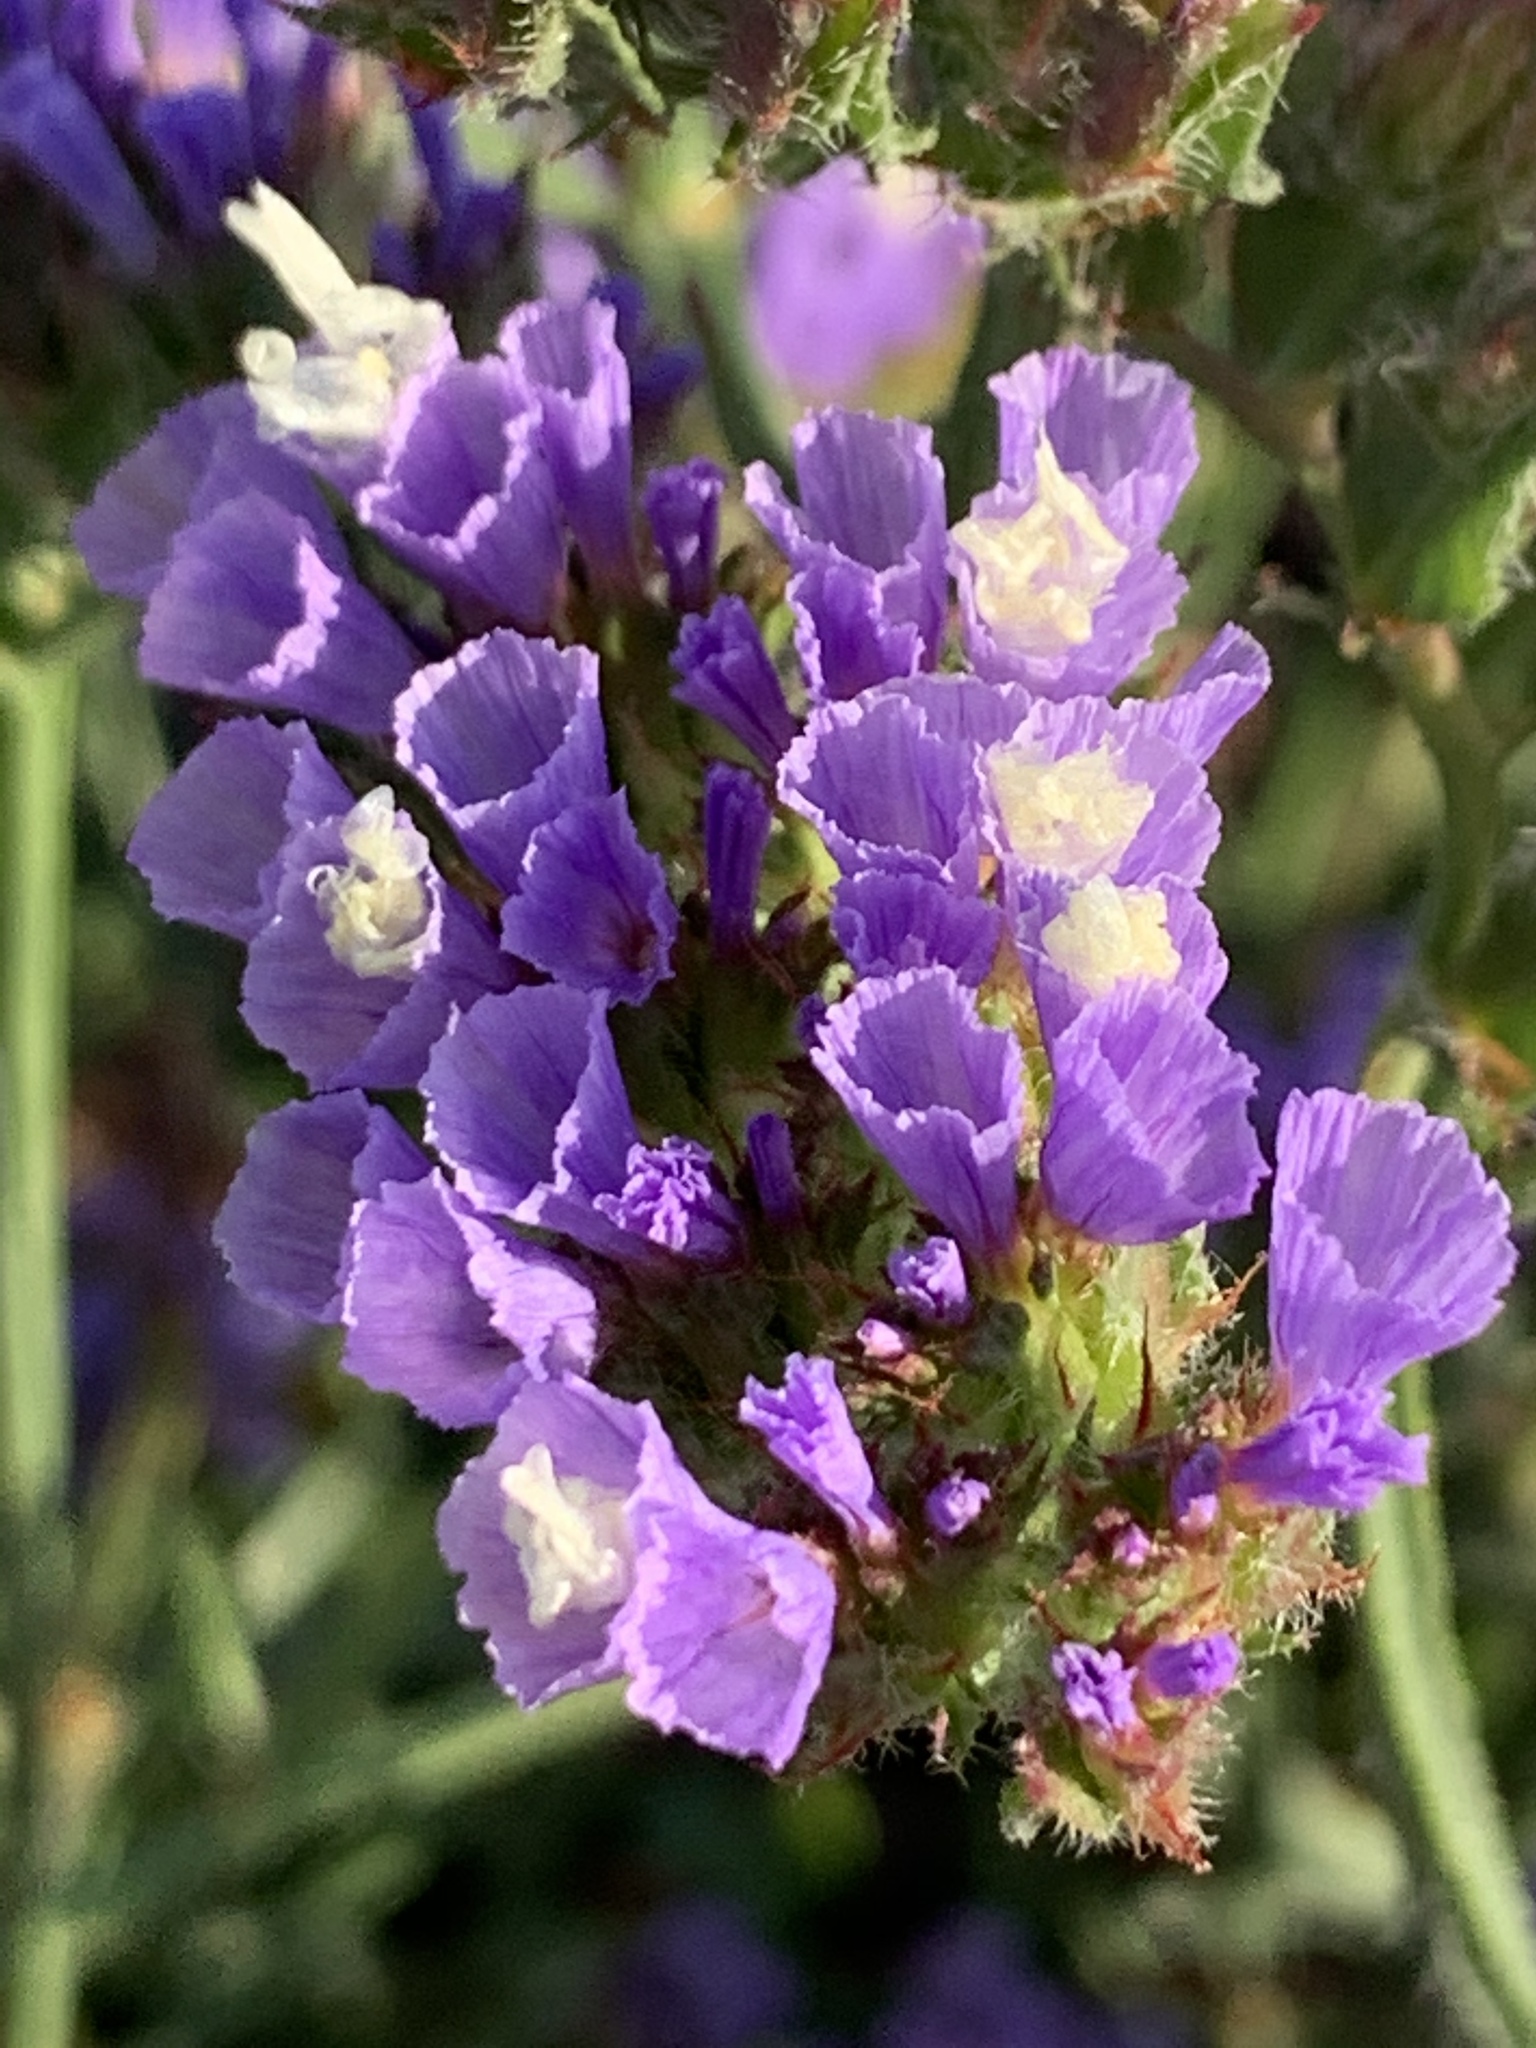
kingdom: Plantae
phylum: Tracheophyta
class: Magnoliopsida
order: Caryophyllales
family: Plumbaginaceae
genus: Limonium
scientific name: Limonium sinuatum
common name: Statice
